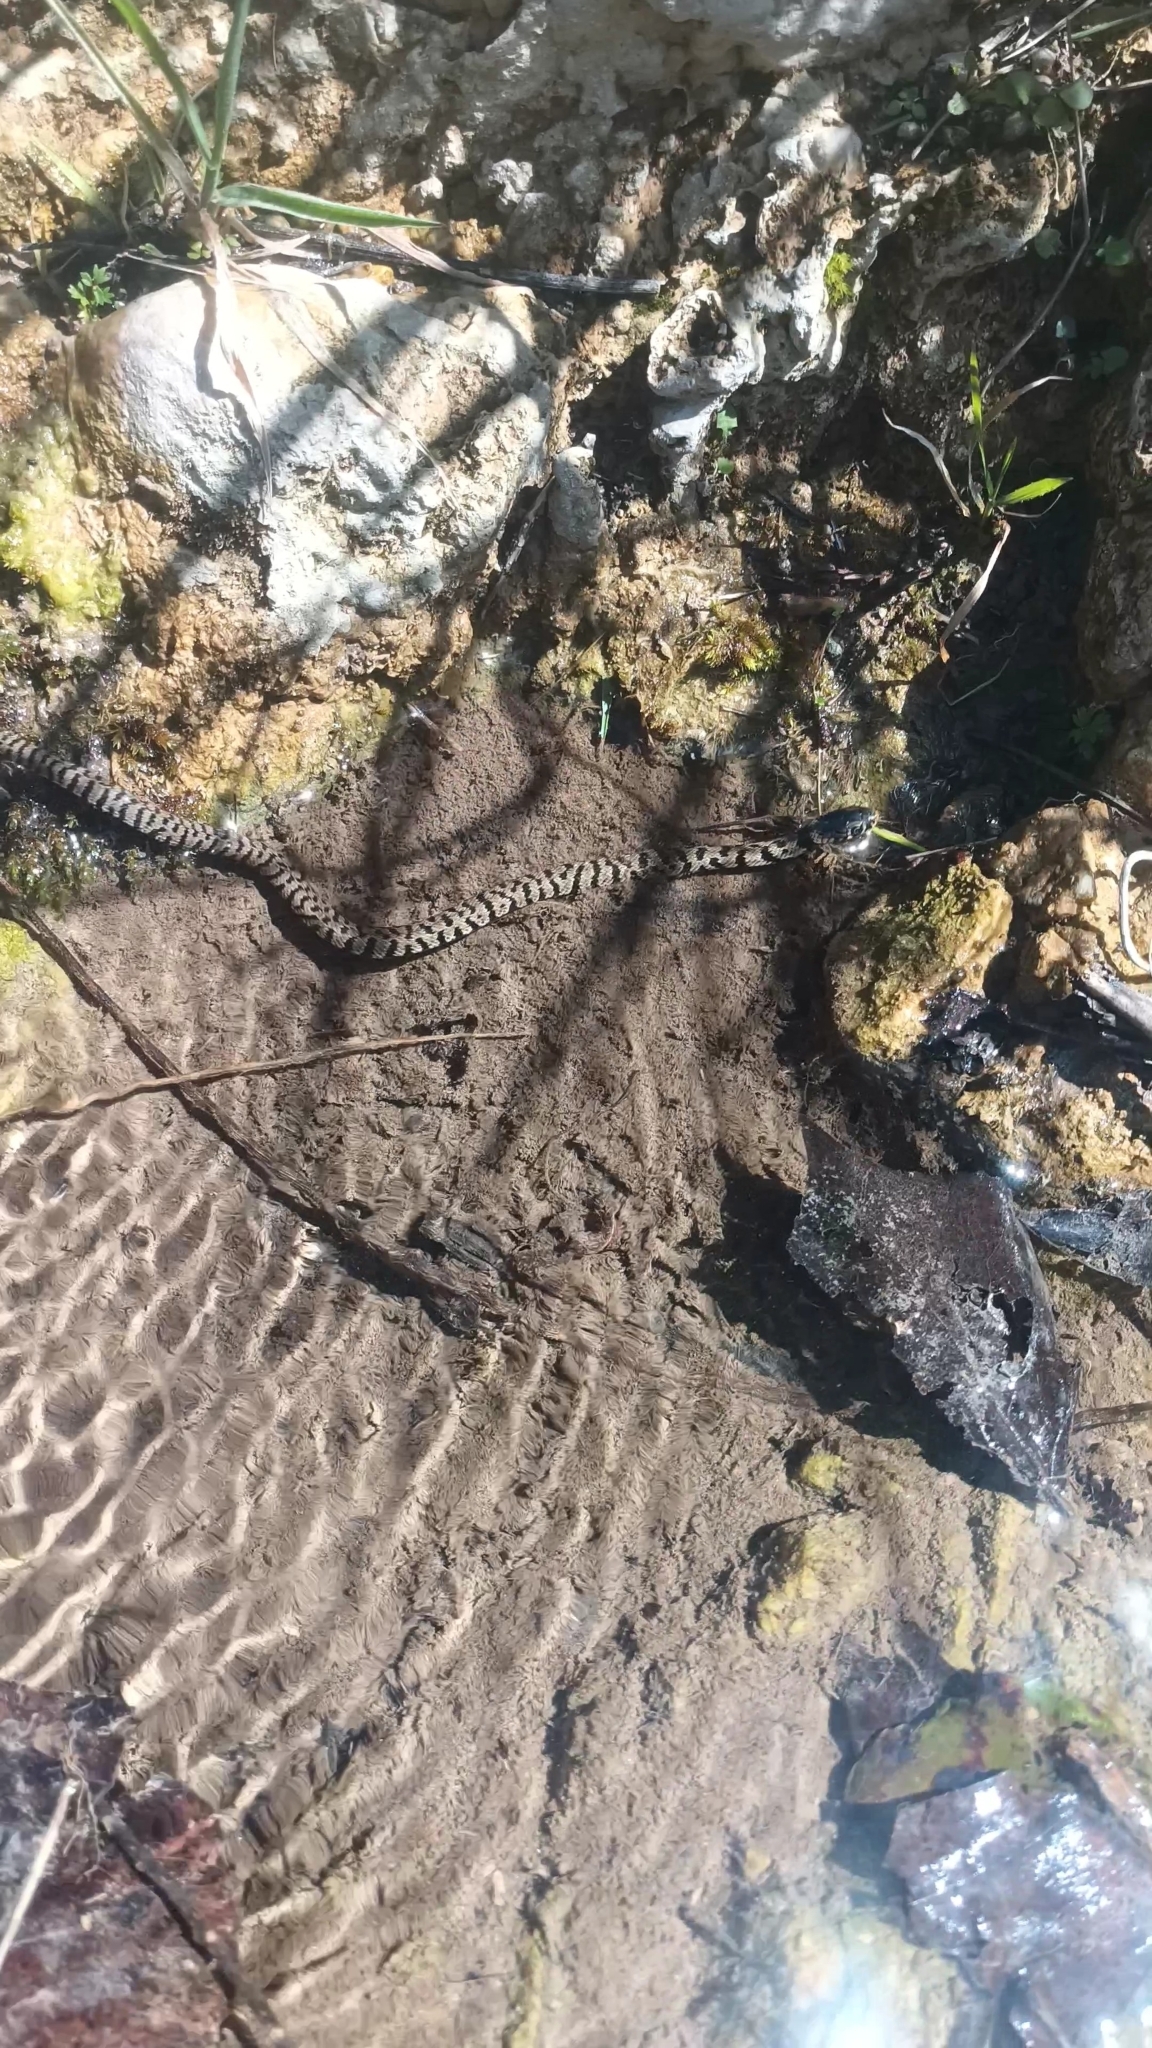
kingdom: Animalia
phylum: Chordata
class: Squamata
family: Colubridae
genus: Natrix
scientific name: Natrix helvetica
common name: Banded grass snake
